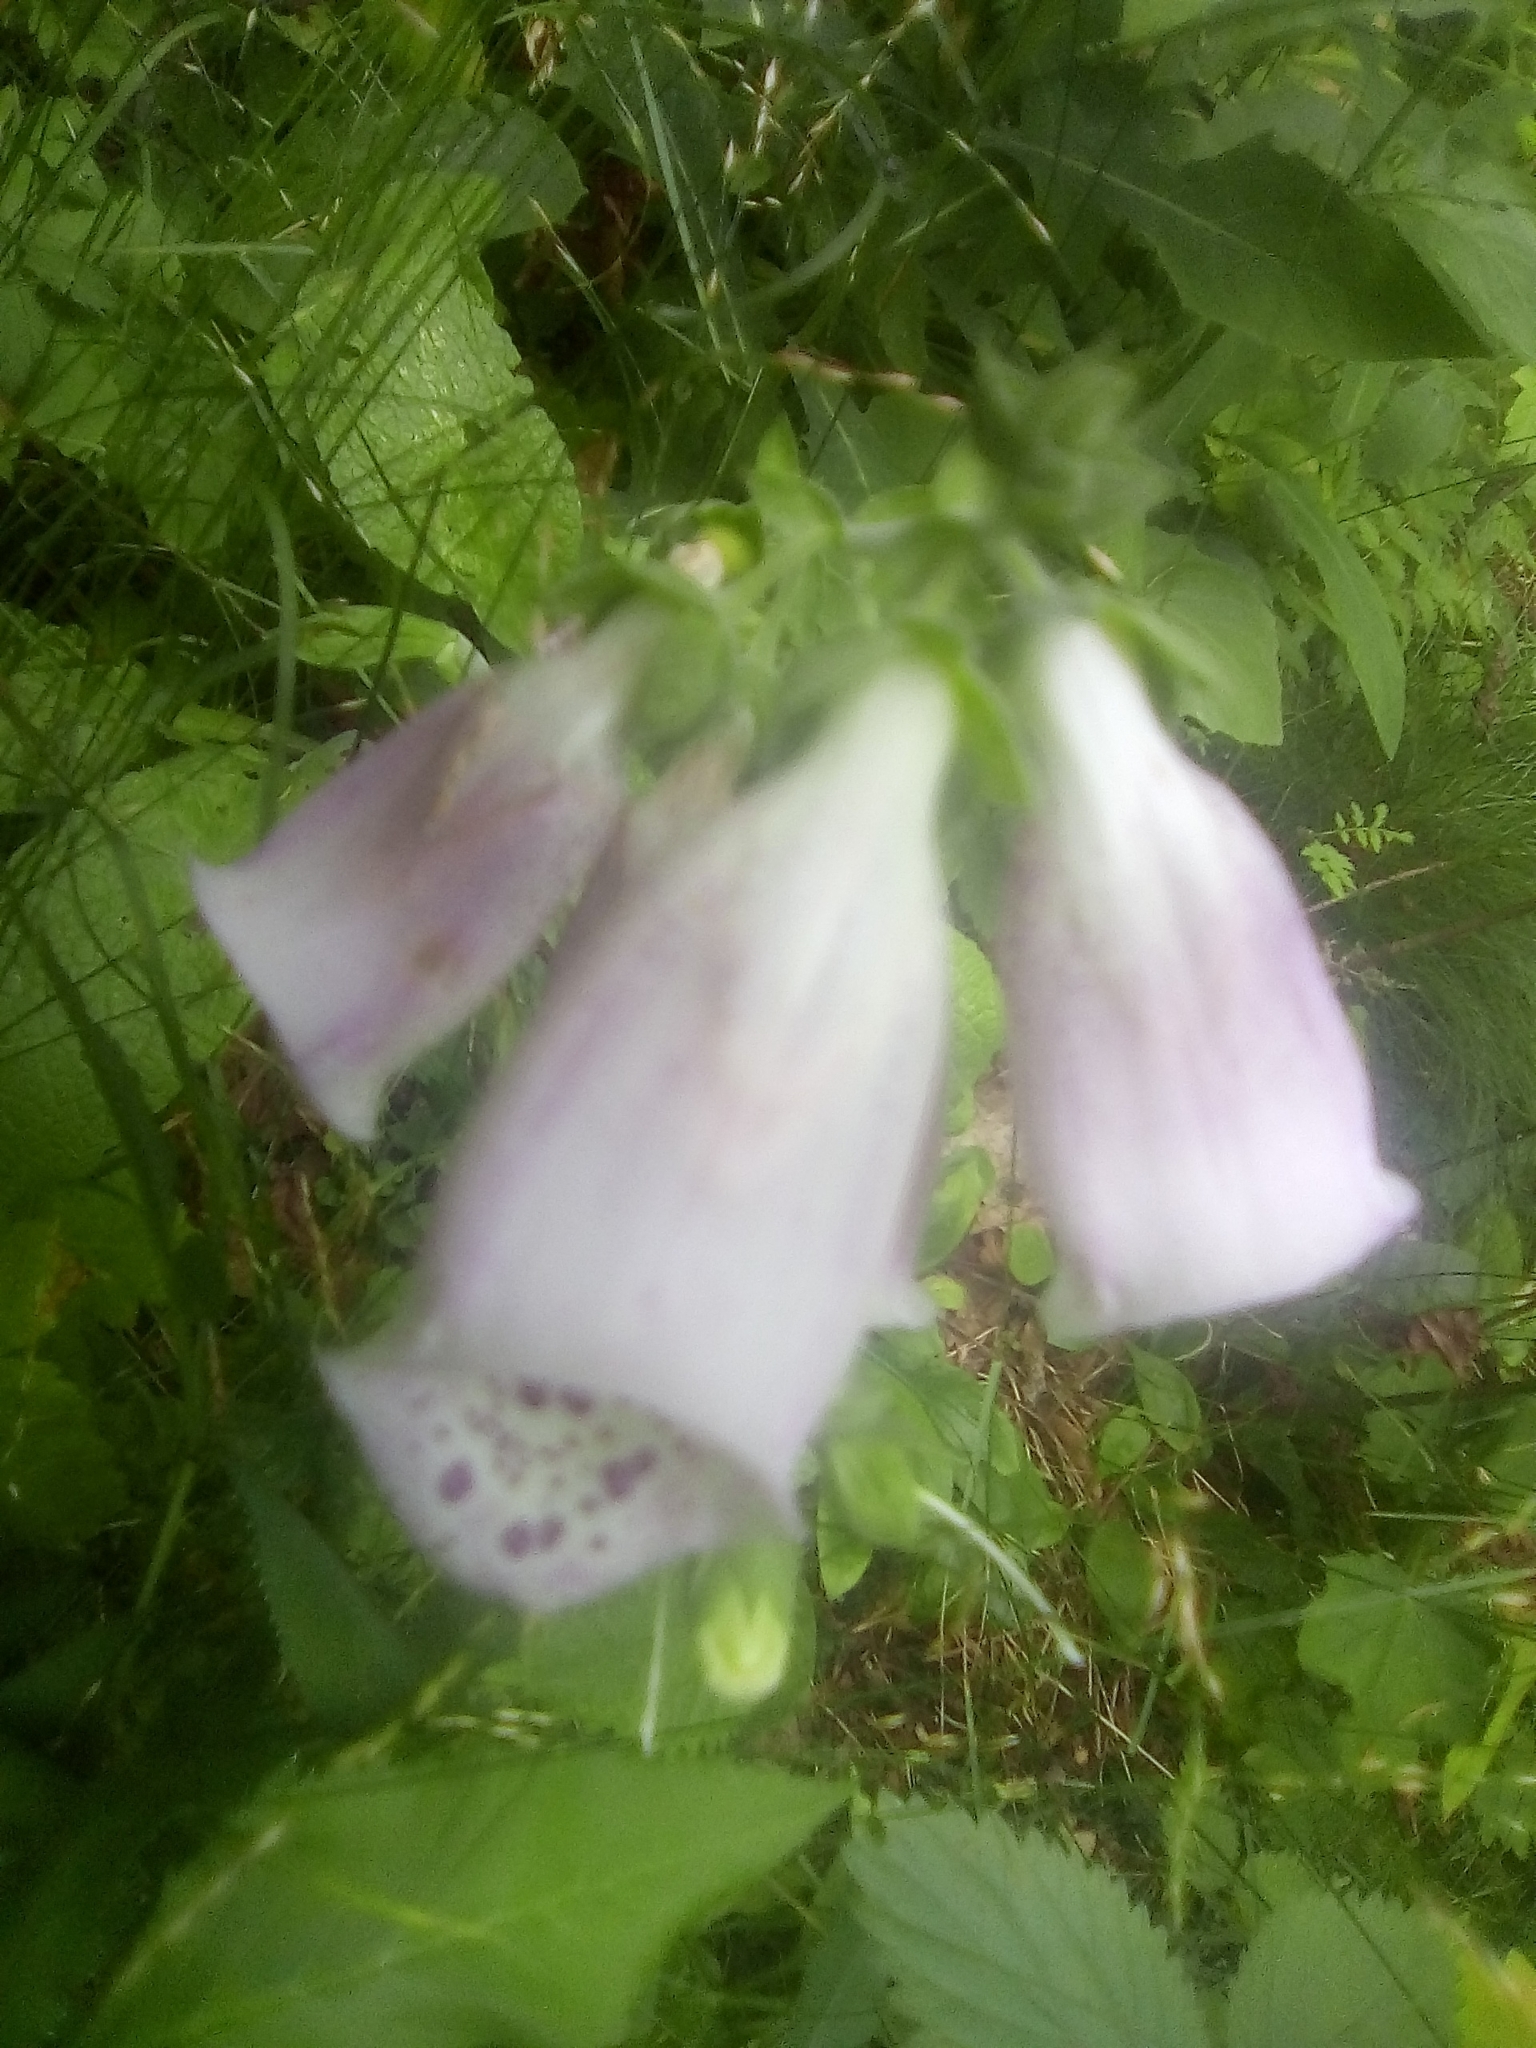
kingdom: Plantae
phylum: Tracheophyta
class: Magnoliopsida
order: Lamiales
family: Plantaginaceae
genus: Digitalis
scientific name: Digitalis purpurea
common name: Foxglove
